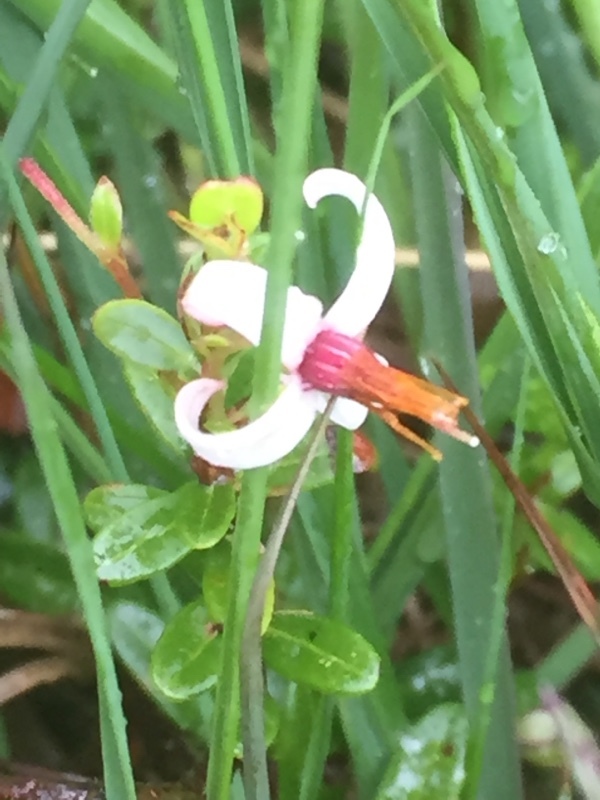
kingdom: Plantae
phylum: Tracheophyta
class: Magnoliopsida
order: Ericales
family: Ericaceae
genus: Vaccinium
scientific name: Vaccinium macrocarpon
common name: American cranberry
